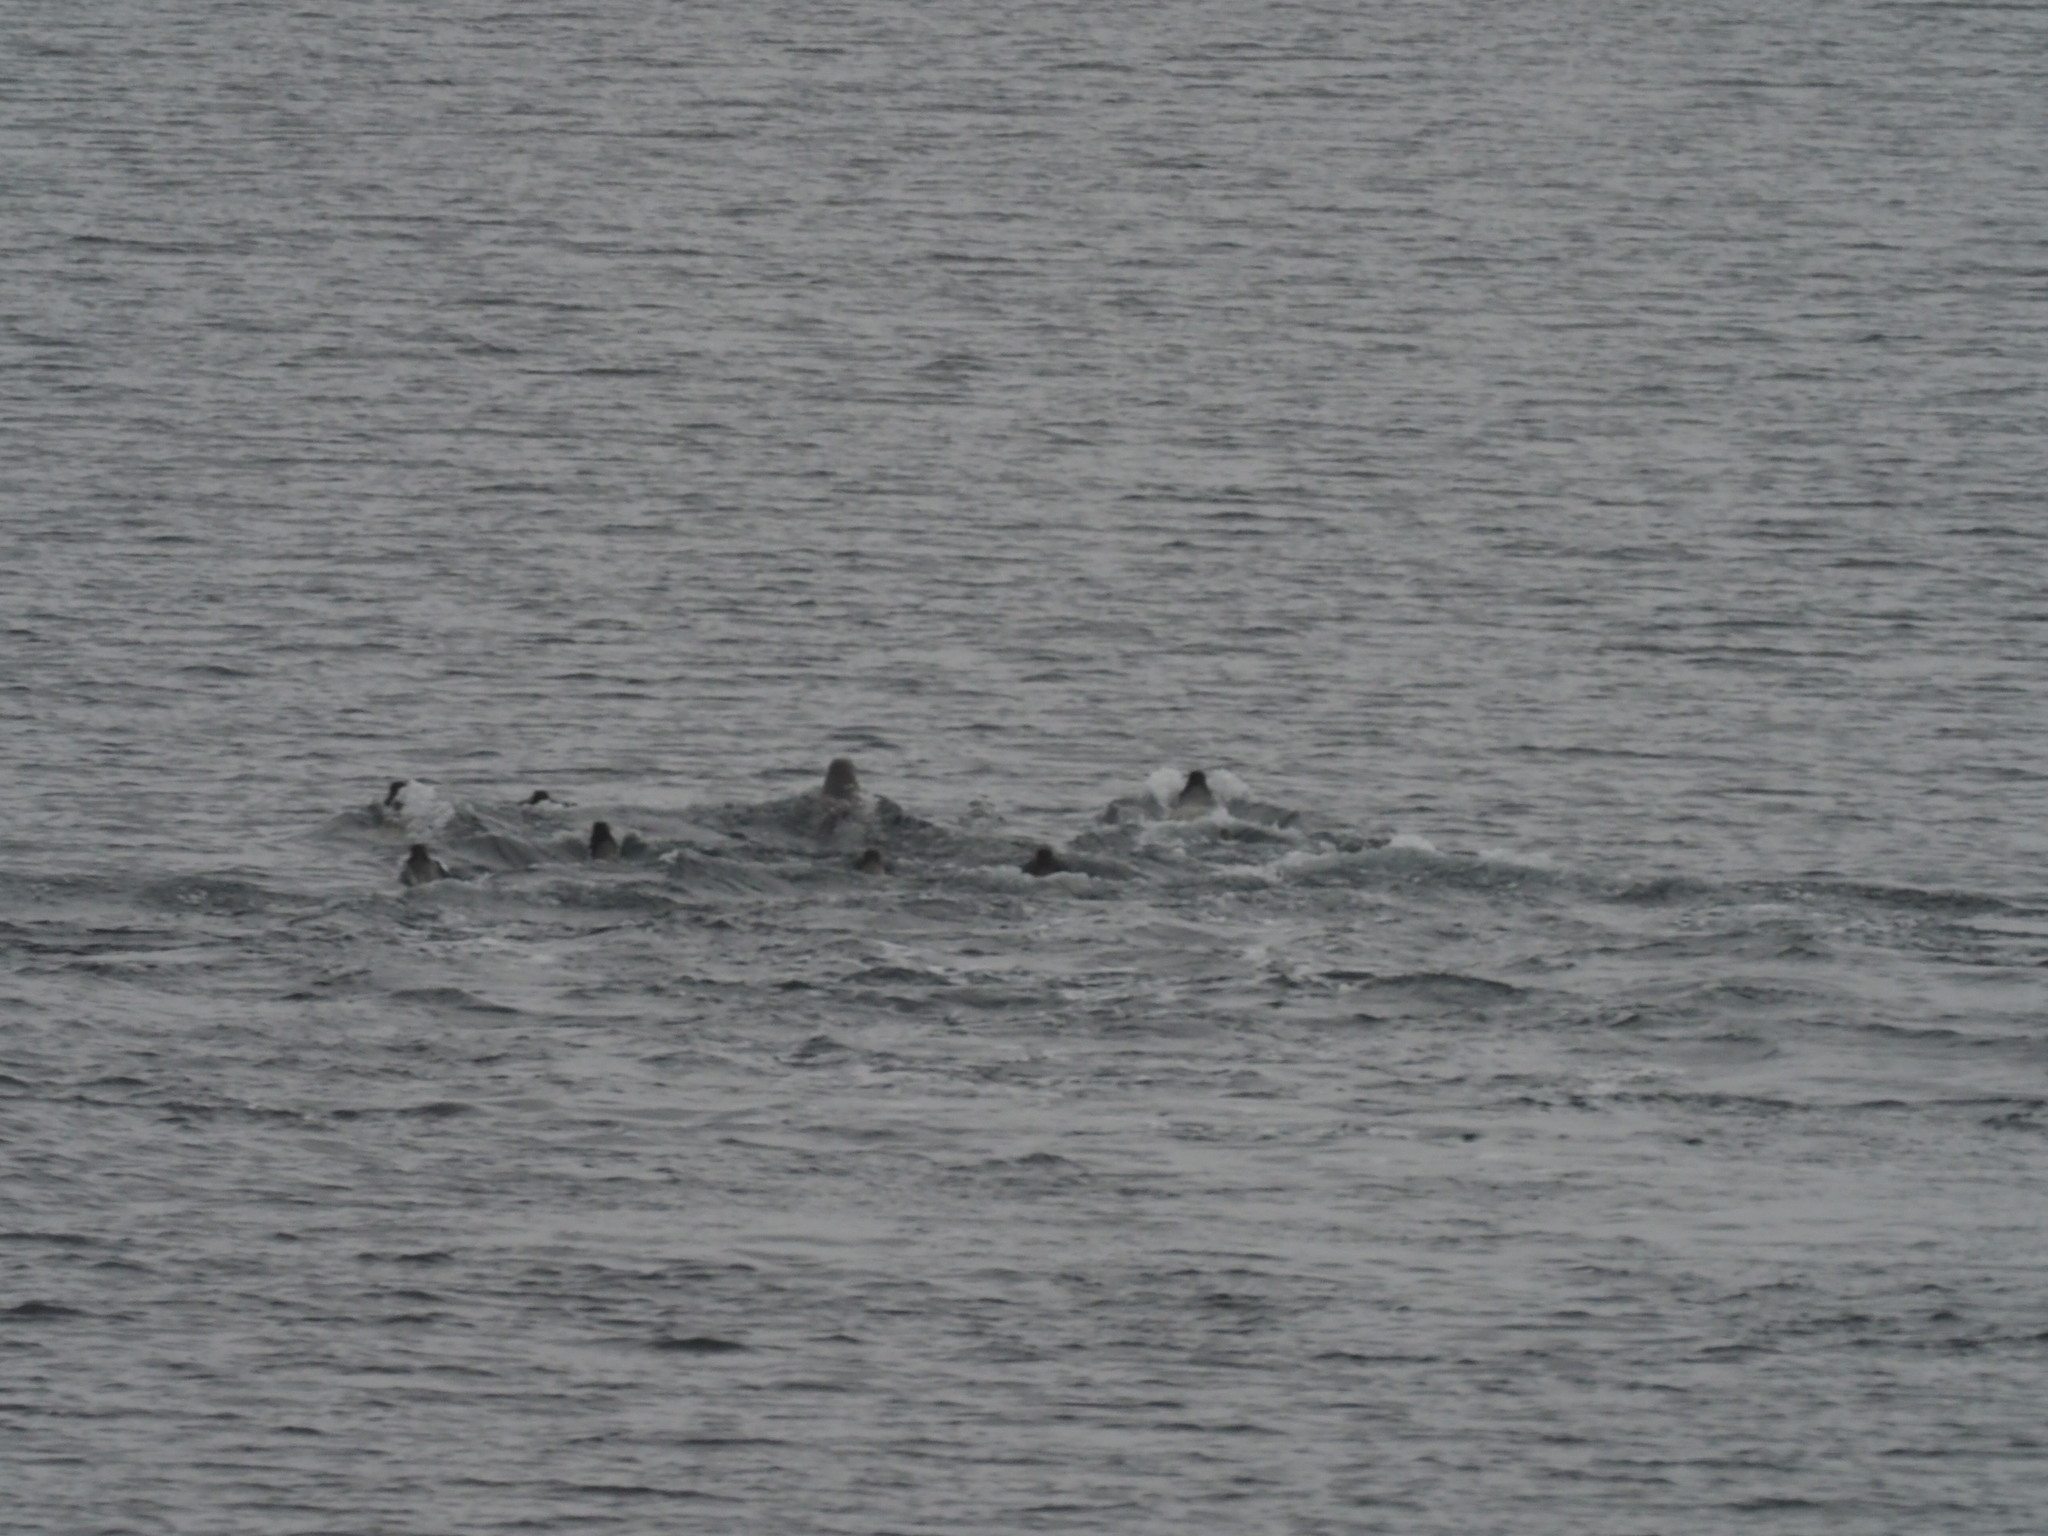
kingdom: Animalia
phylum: Chordata
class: Mammalia
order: Carnivora
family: Phocidae
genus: Pagophilus
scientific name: Pagophilus groenlandicus
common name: Harp seal
